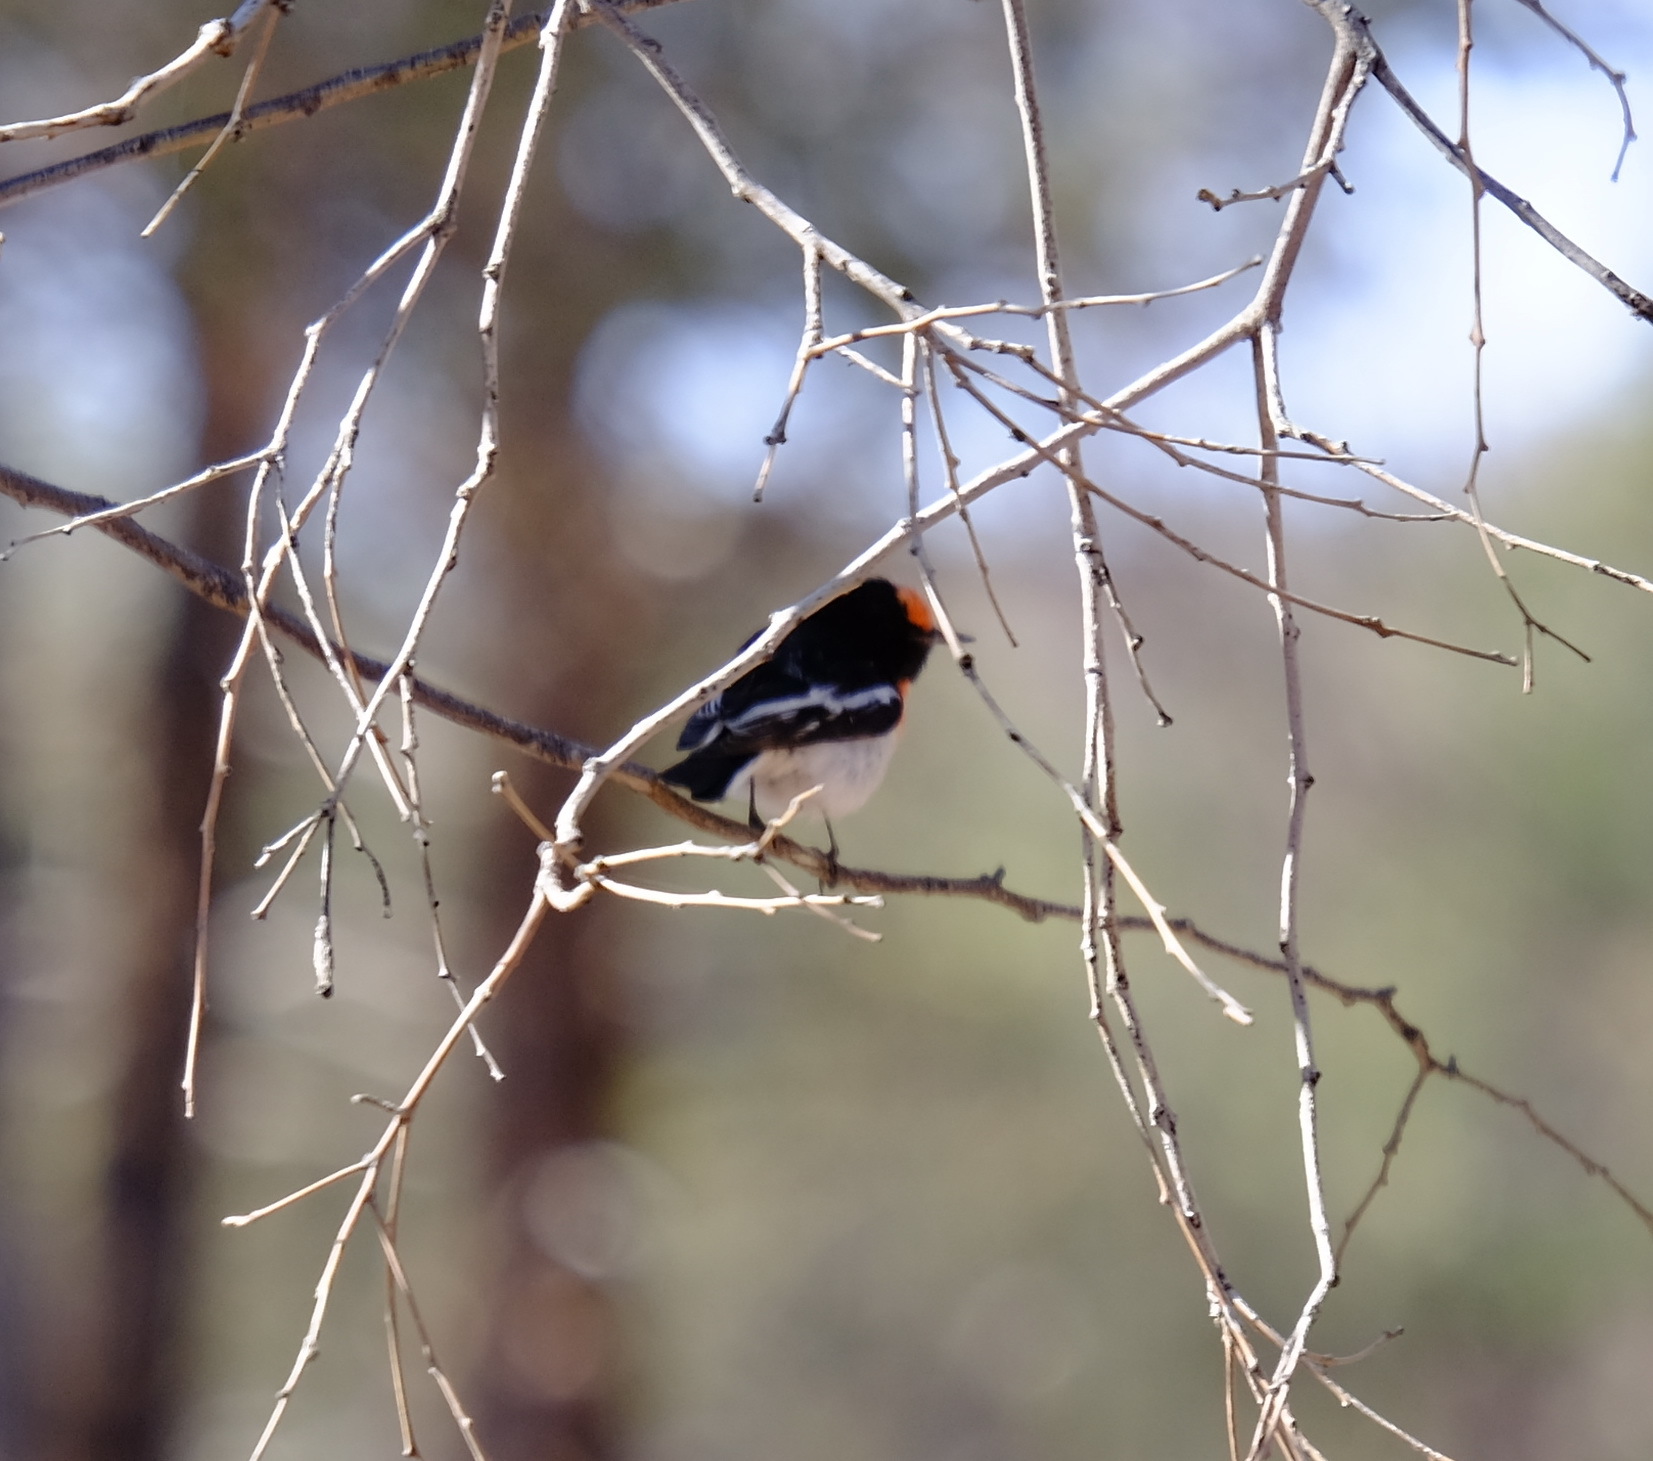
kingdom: Animalia
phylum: Chordata
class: Aves
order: Passeriformes
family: Petroicidae
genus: Petroica
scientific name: Petroica goodenovii
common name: Red-capped robin
